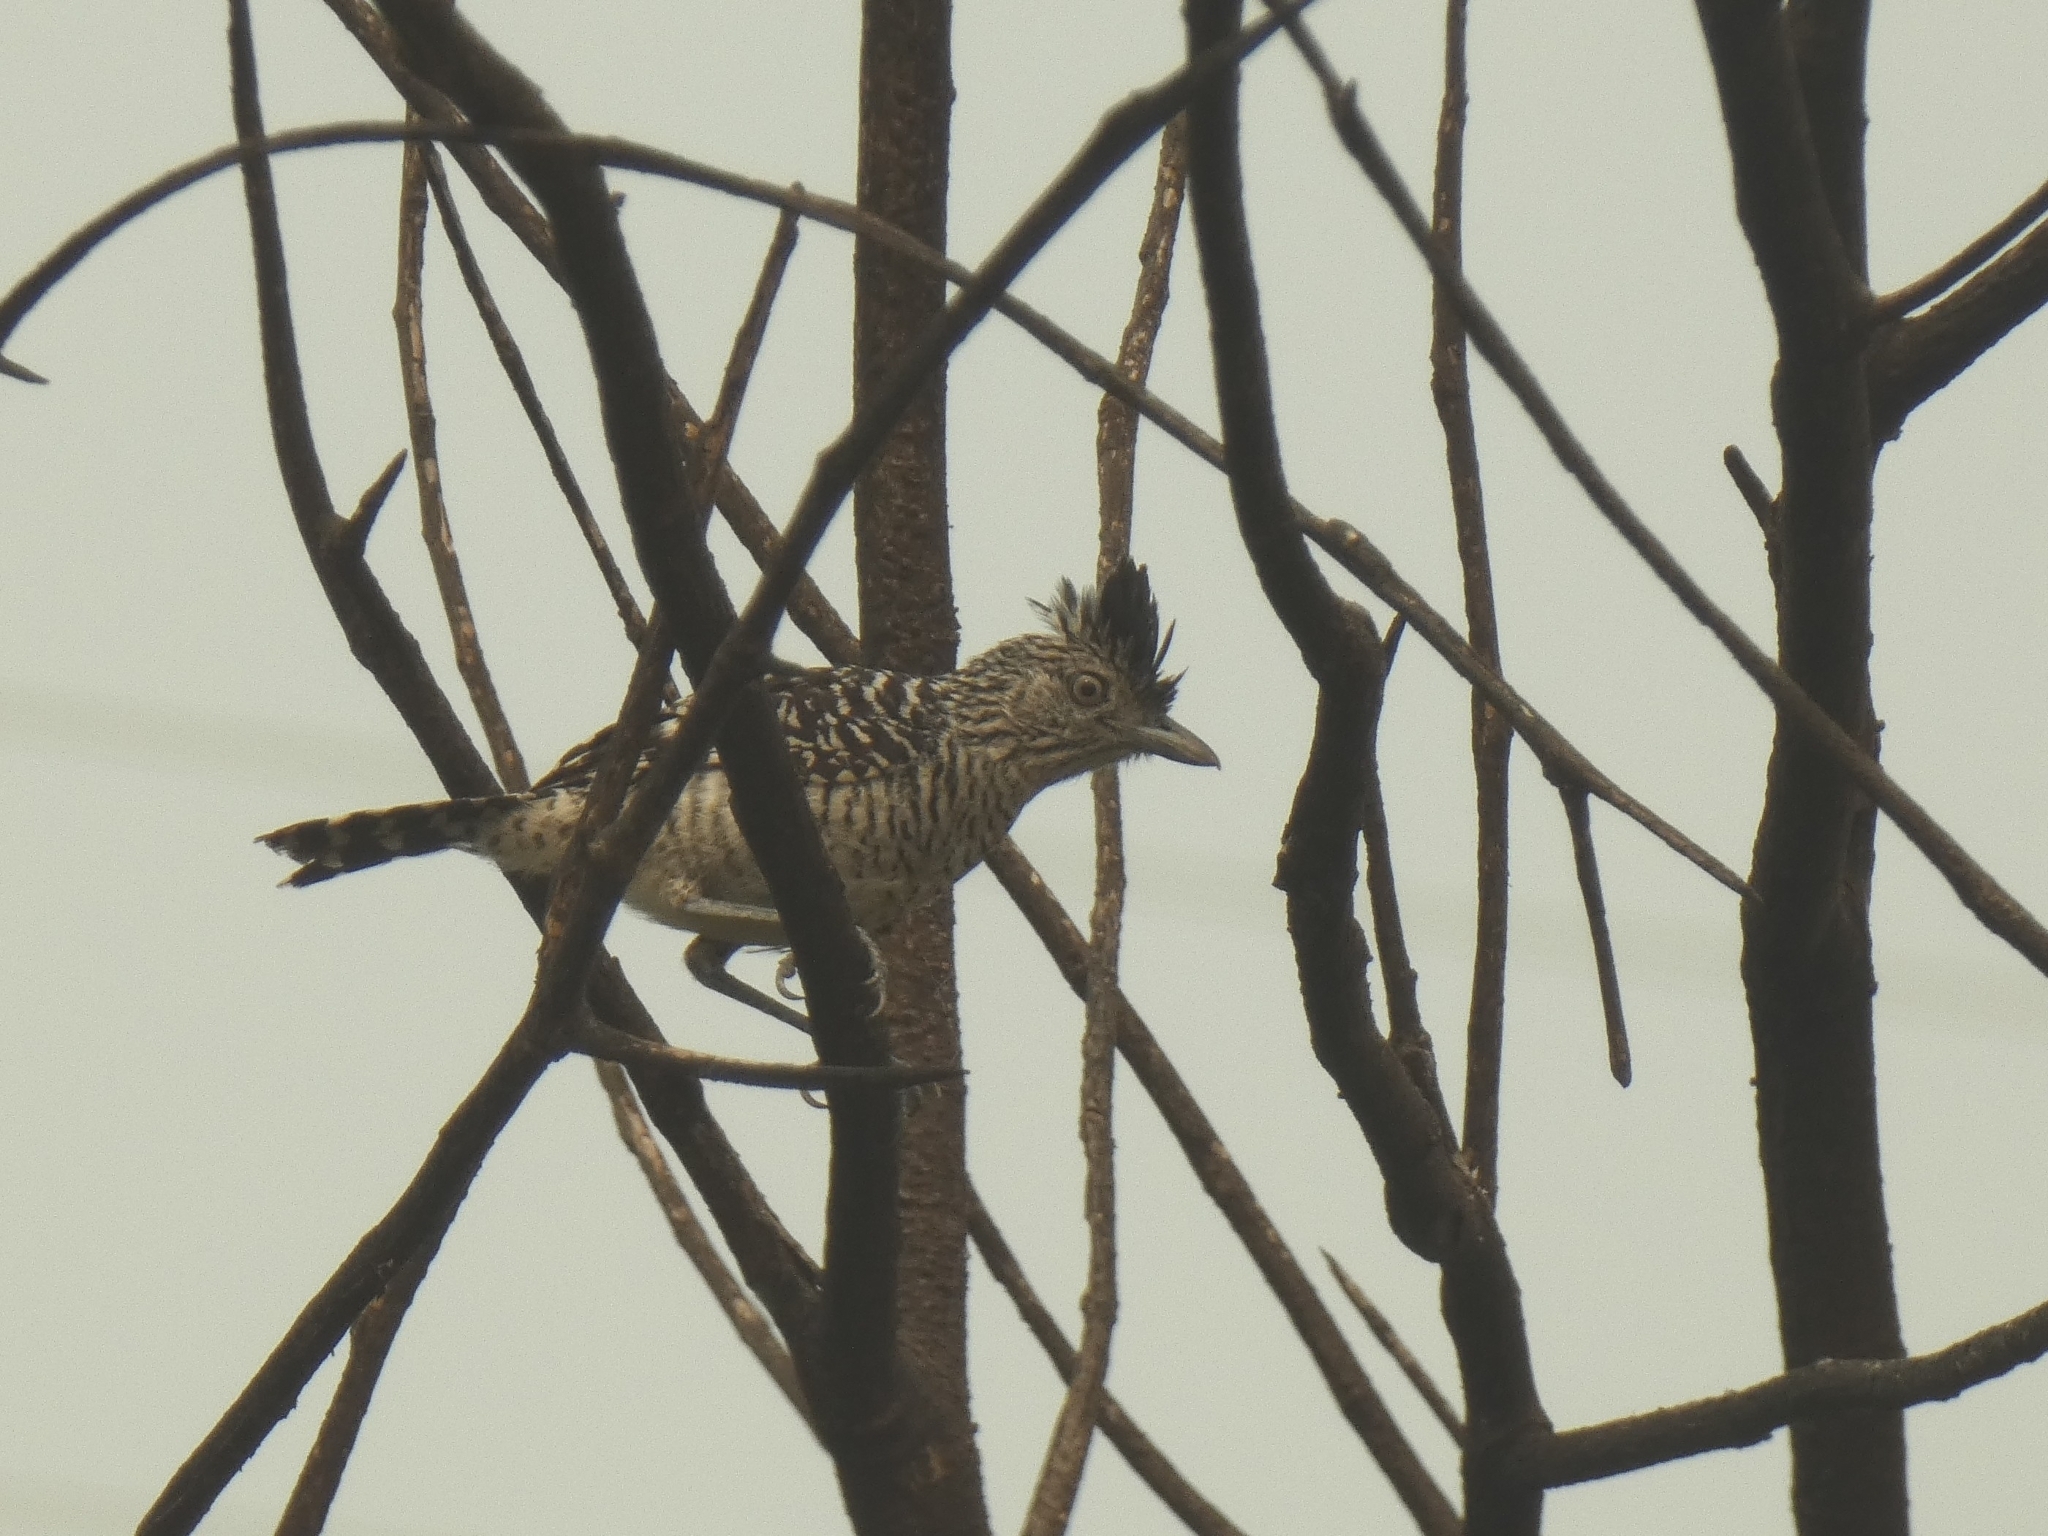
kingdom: Animalia
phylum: Chordata
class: Aves
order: Passeriformes
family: Thamnophilidae
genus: Thamnophilus
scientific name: Thamnophilus doliatus
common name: Barred antshrike
